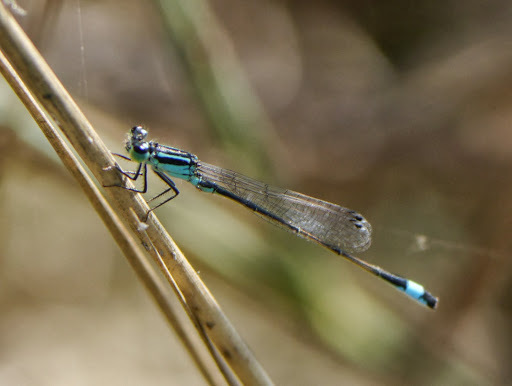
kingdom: Animalia
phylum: Arthropoda
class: Insecta
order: Odonata
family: Coenagrionidae
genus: Ischnura
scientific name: Ischnura elegans
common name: Blue-tailed damselfly
